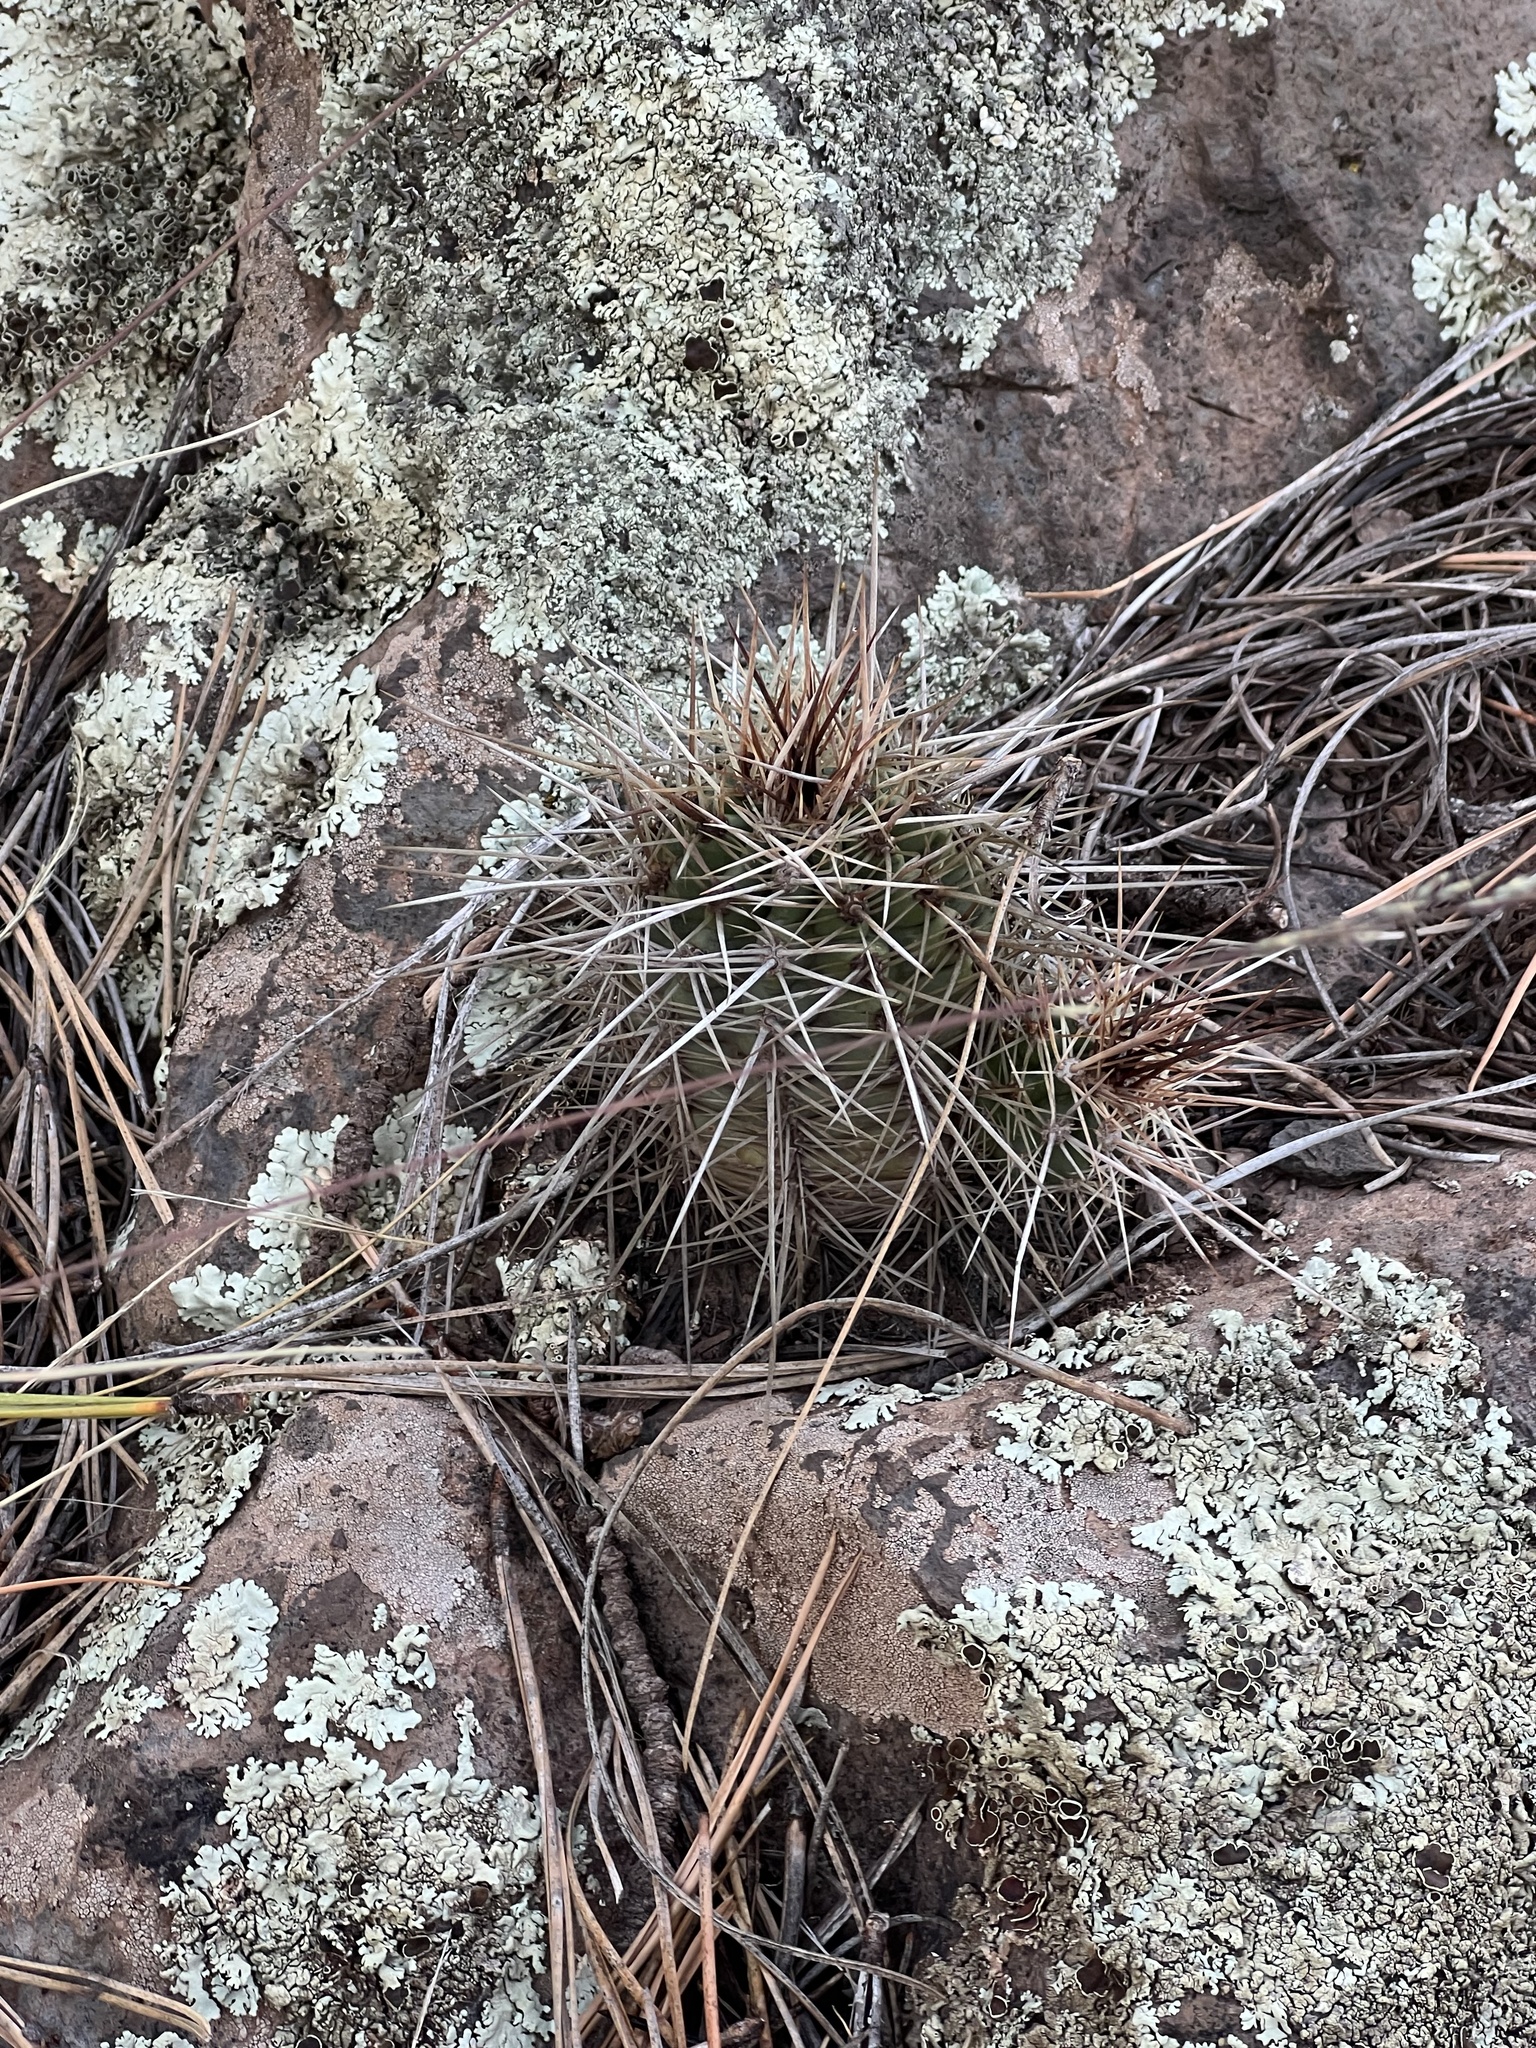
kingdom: Plantae
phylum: Tracheophyta
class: Magnoliopsida
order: Caryophyllales
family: Cactaceae
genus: Echinocereus
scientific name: Echinocereus bakeri
